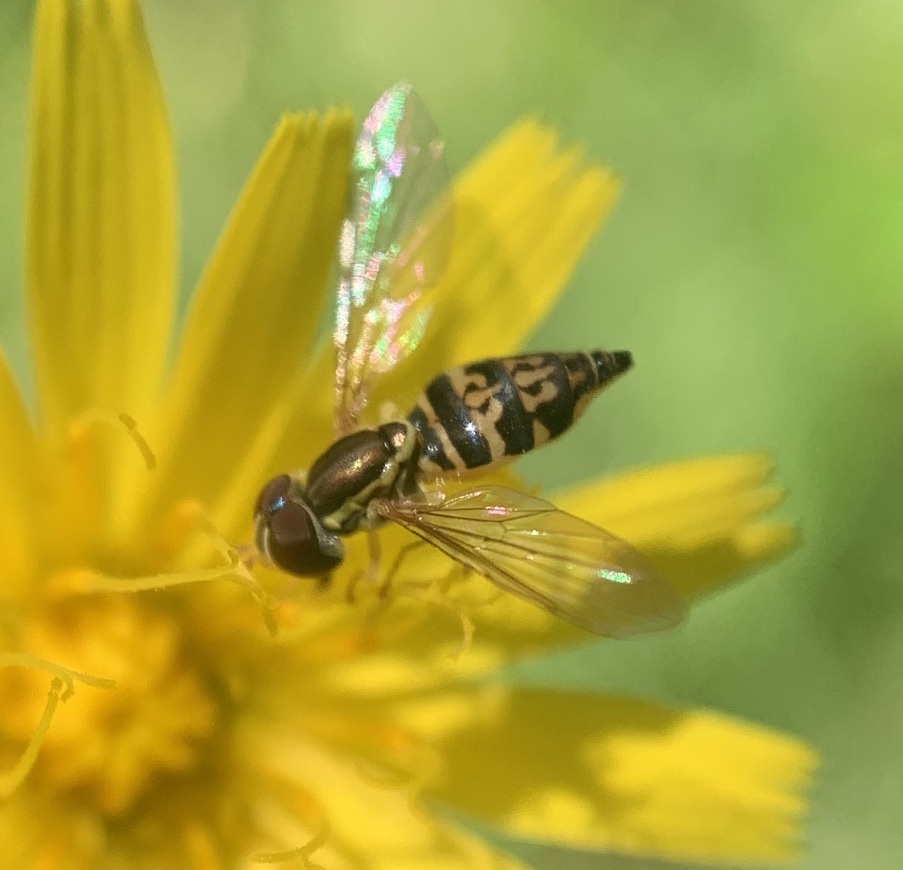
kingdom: Animalia
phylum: Arthropoda
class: Insecta
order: Diptera
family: Syrphidae
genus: Toxomerus
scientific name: Toxomerus geminatus
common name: Eastern calligrapher
